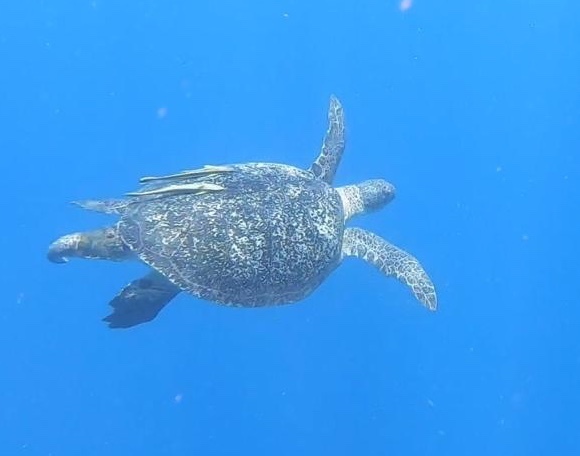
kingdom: Animalia
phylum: Chordata
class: Testudines
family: Cheloniidae
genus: Chelonia
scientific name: Chelonia mydas
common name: Green turtle
